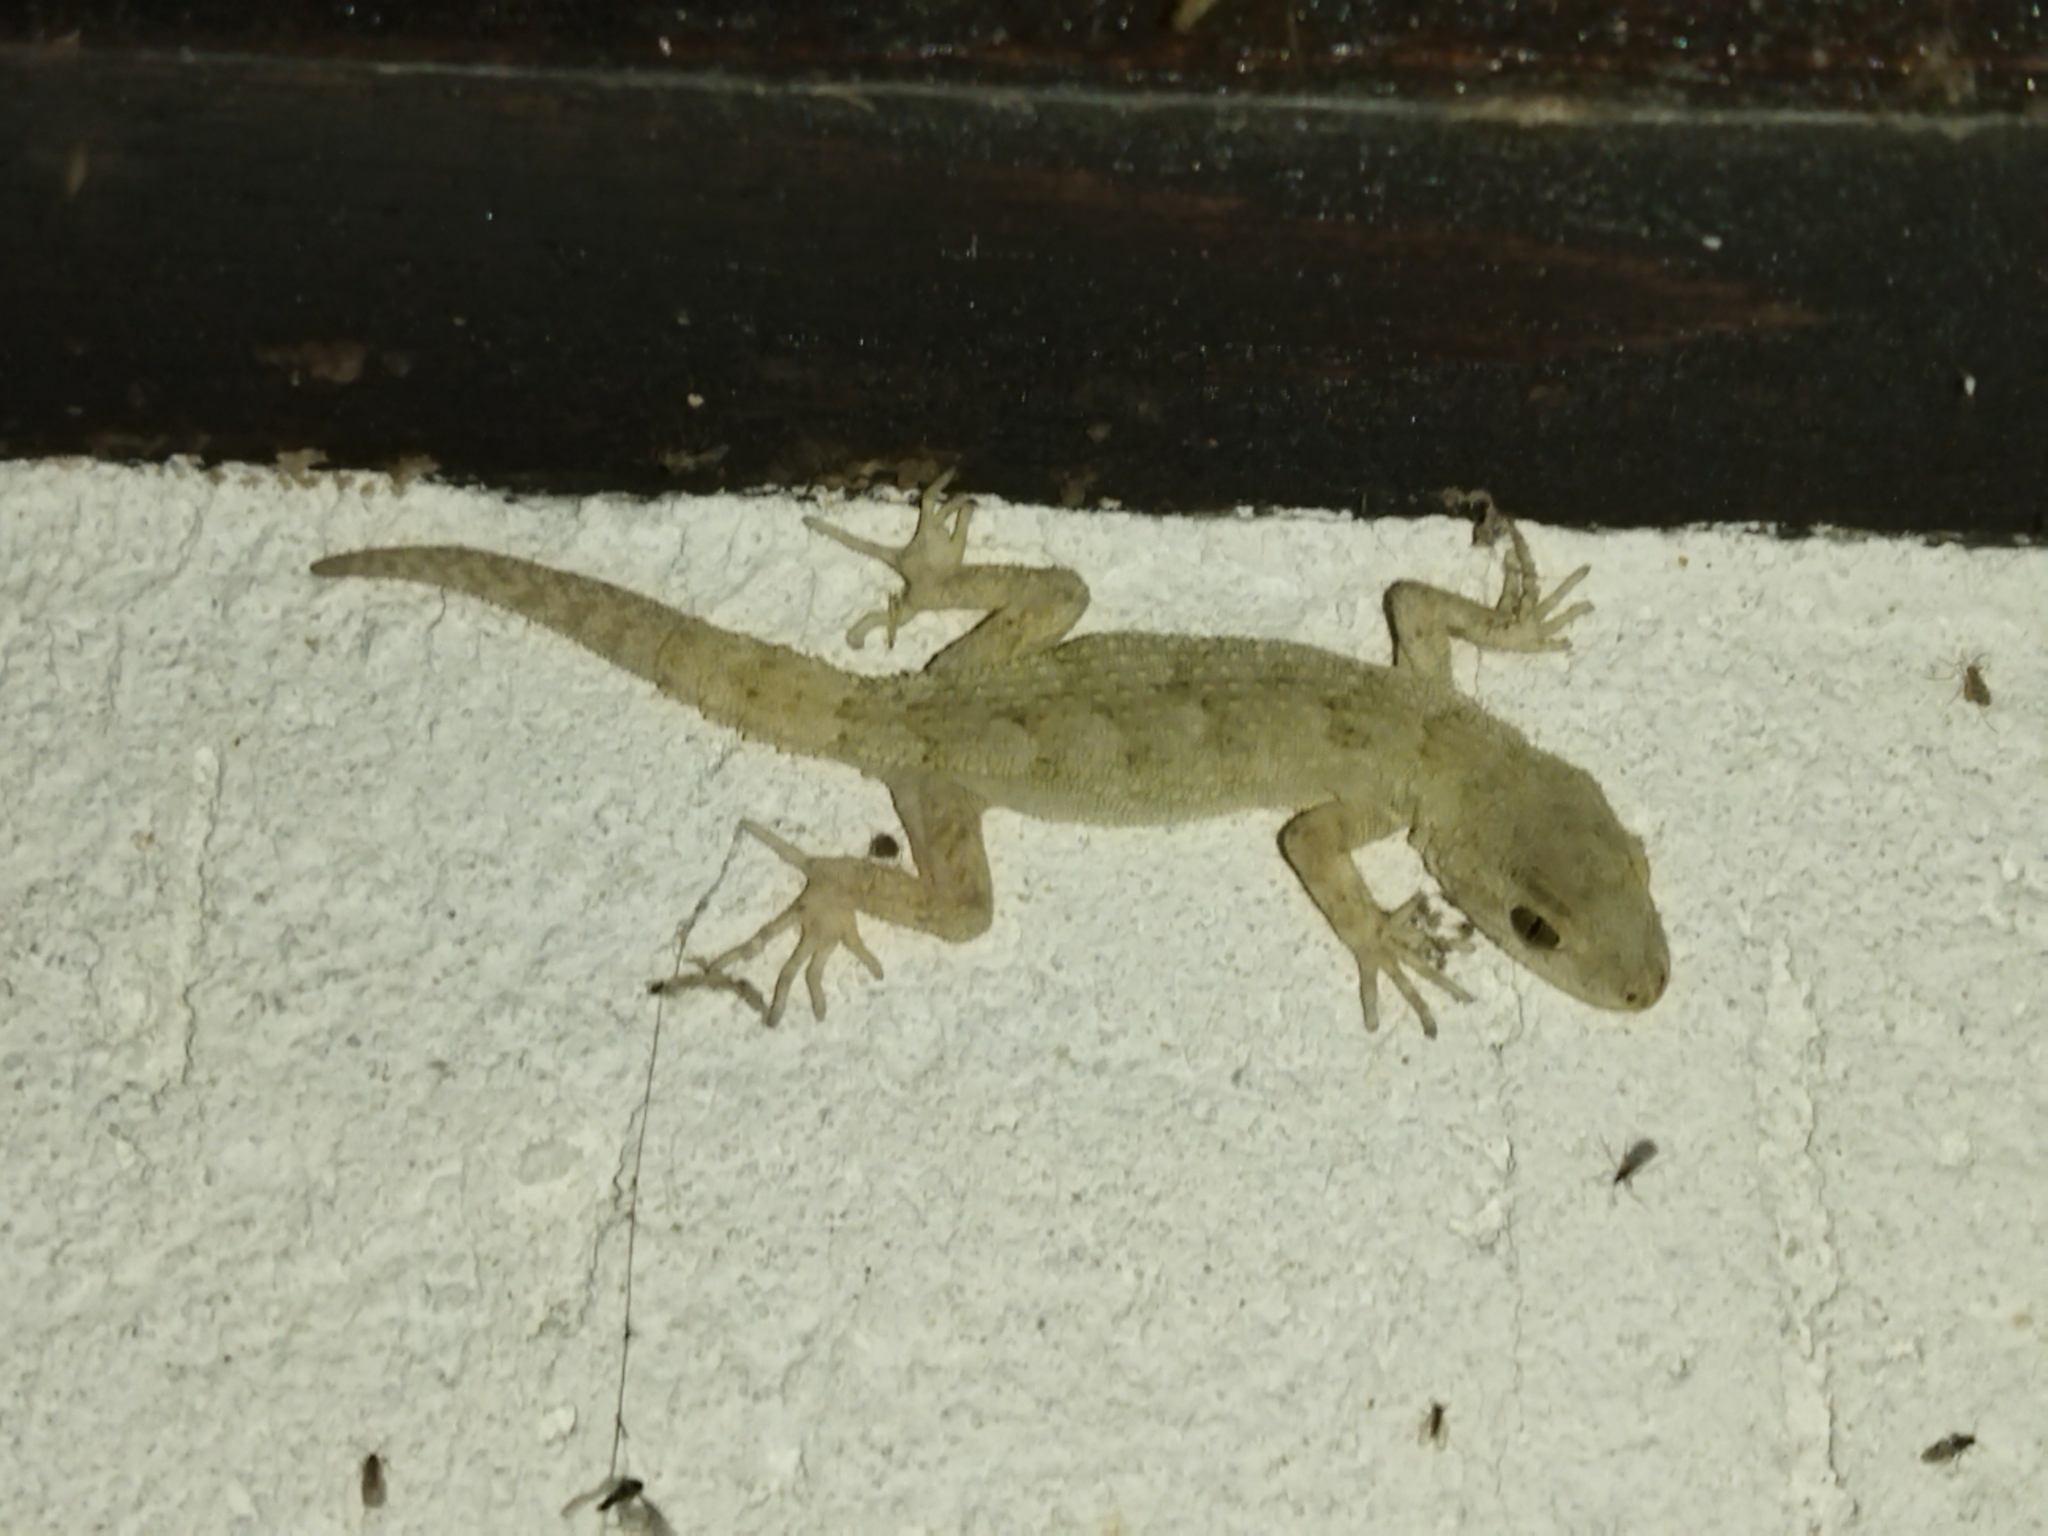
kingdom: Animalia
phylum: Chordata
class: Squamata
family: Gekkonidae
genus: Mediodactylus
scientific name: Mediodactylus kotschyi
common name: Kotschy's gecko
